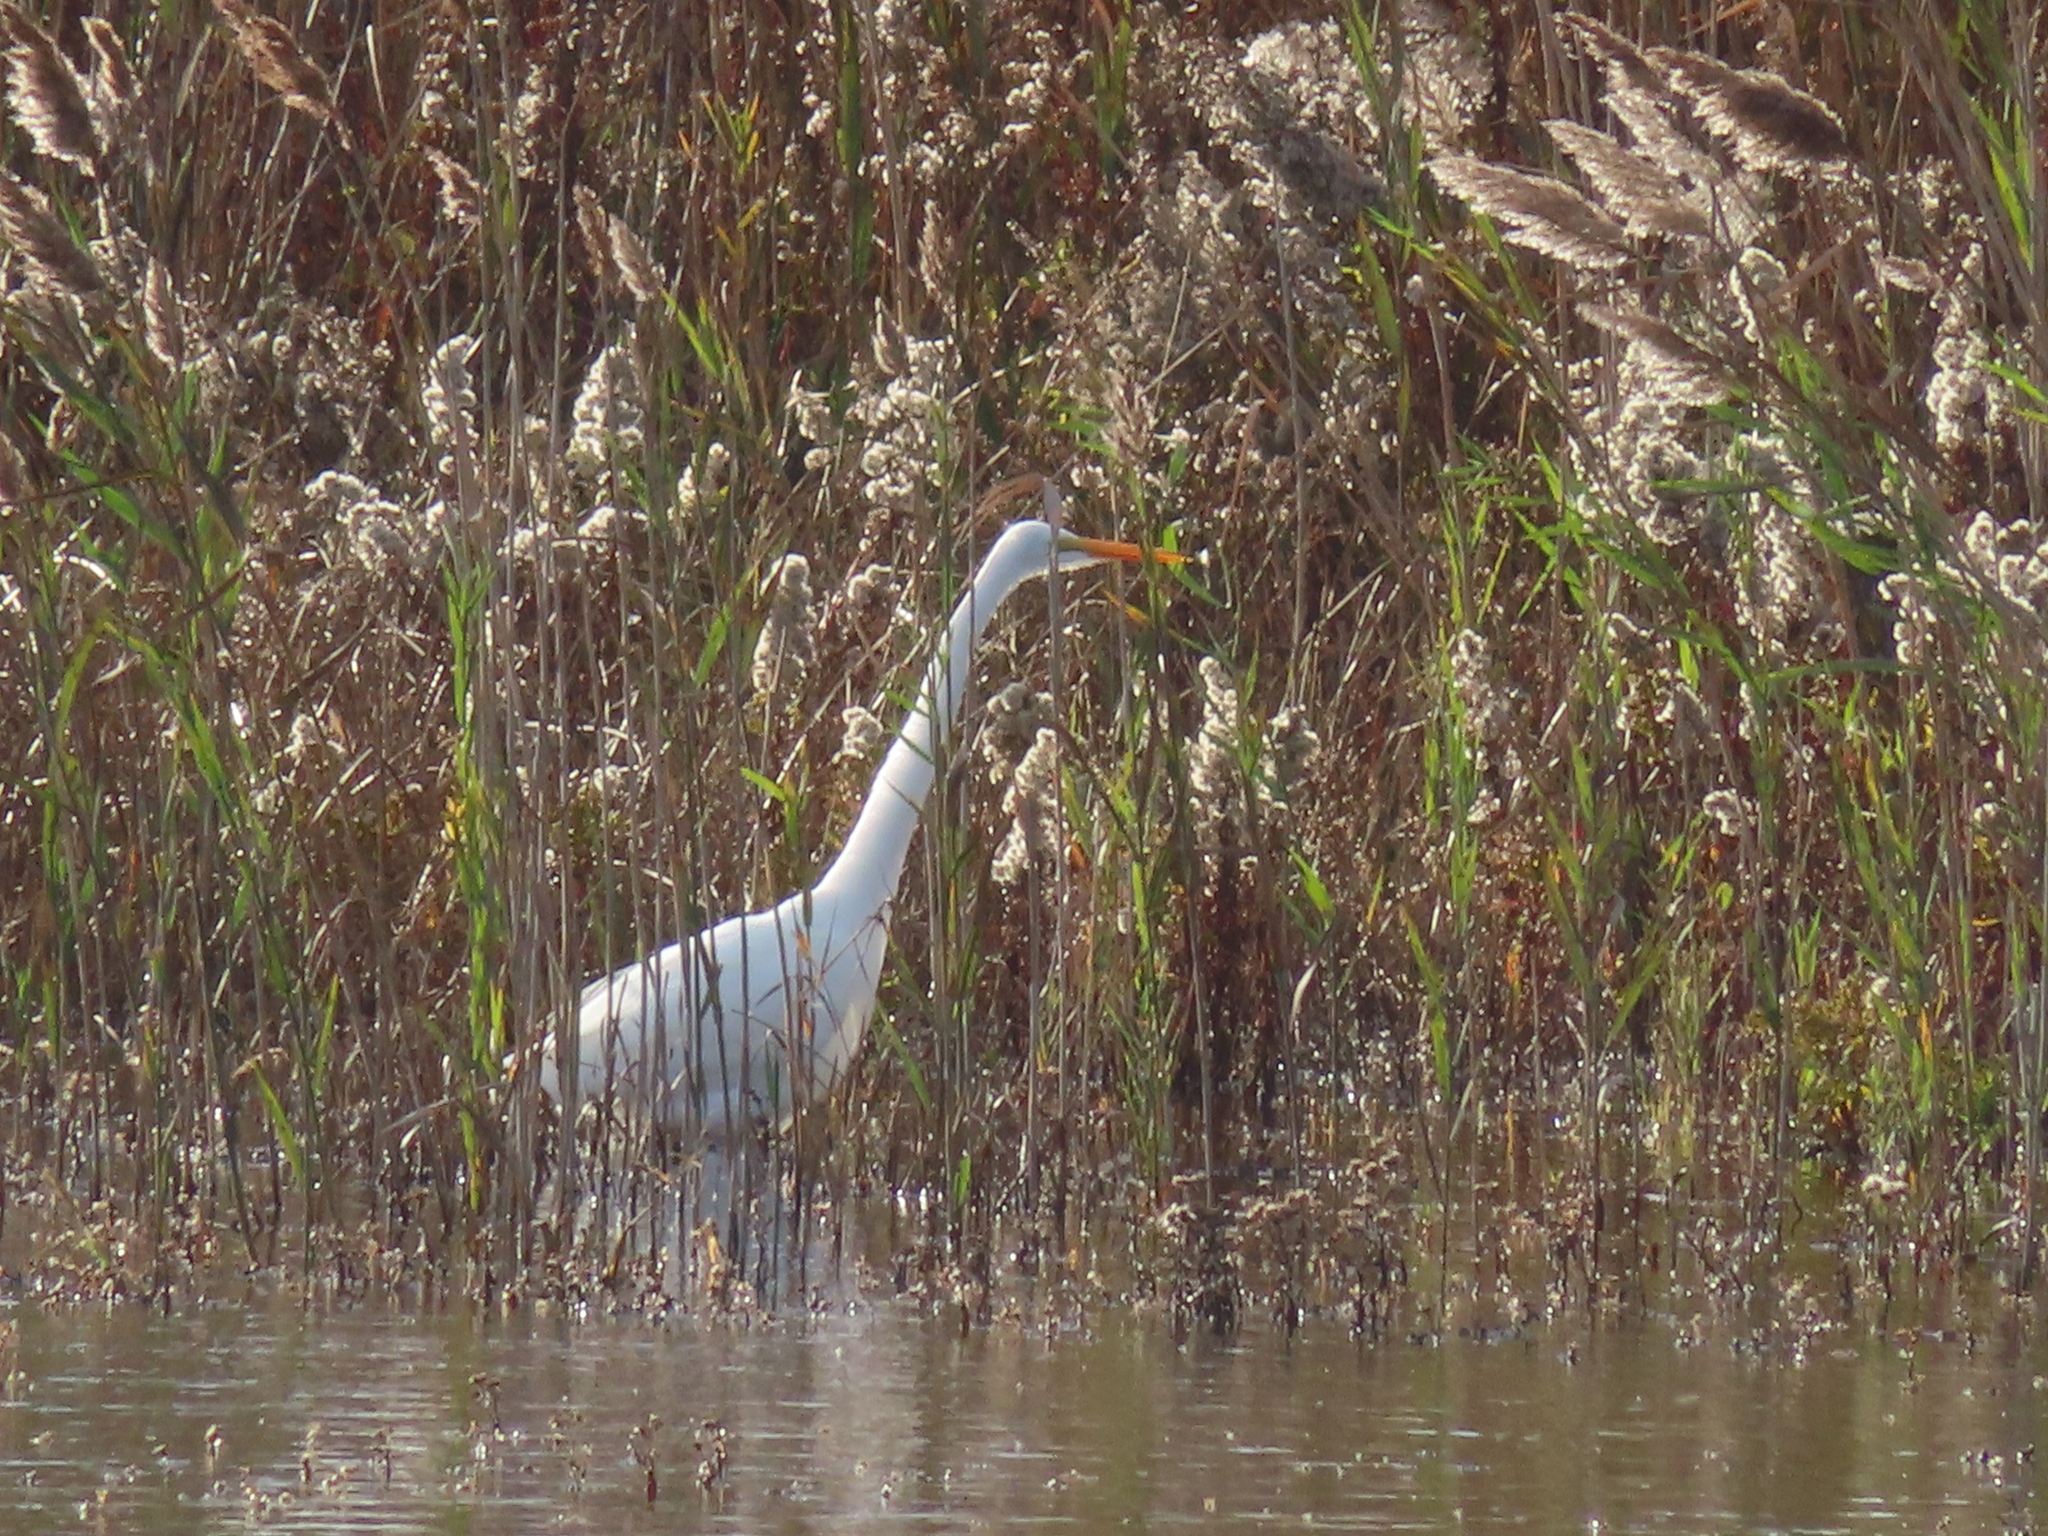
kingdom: Animalia
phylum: Chordata
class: Aves
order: Pelecaniformes
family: Ardeidae
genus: Ardea
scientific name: Ardea alba
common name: Great egret
